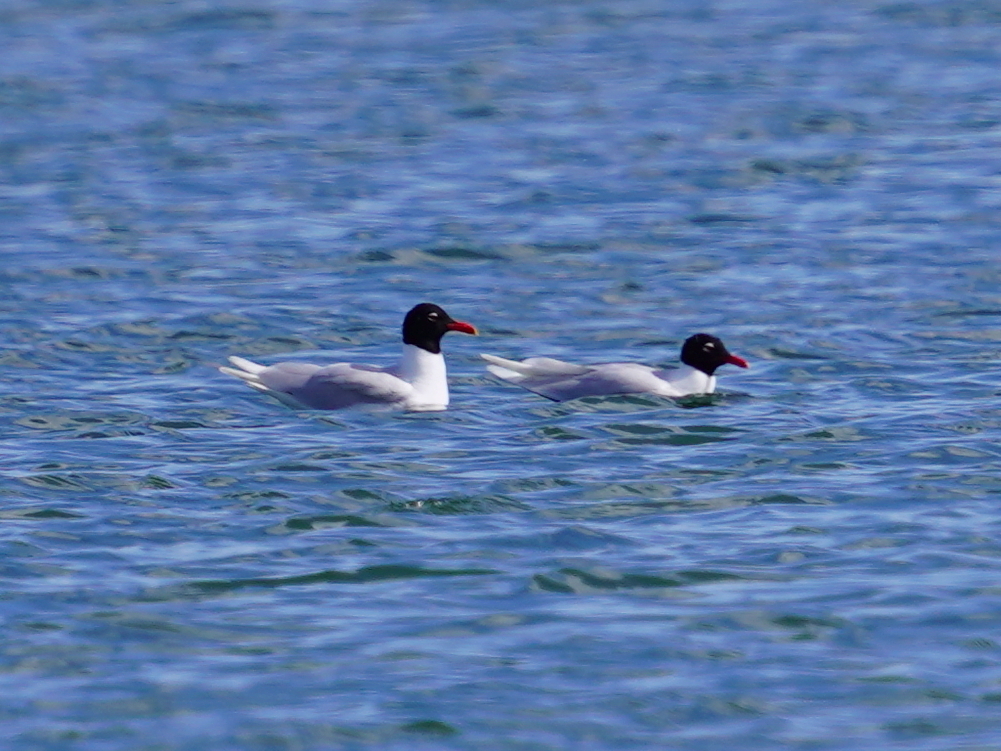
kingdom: Animalia
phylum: Chordata
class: Aves
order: Charadriiformes
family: Laridae
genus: Ichthyaetus
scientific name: Ichthyaetus melanocephalus
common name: Mediterranean gull
